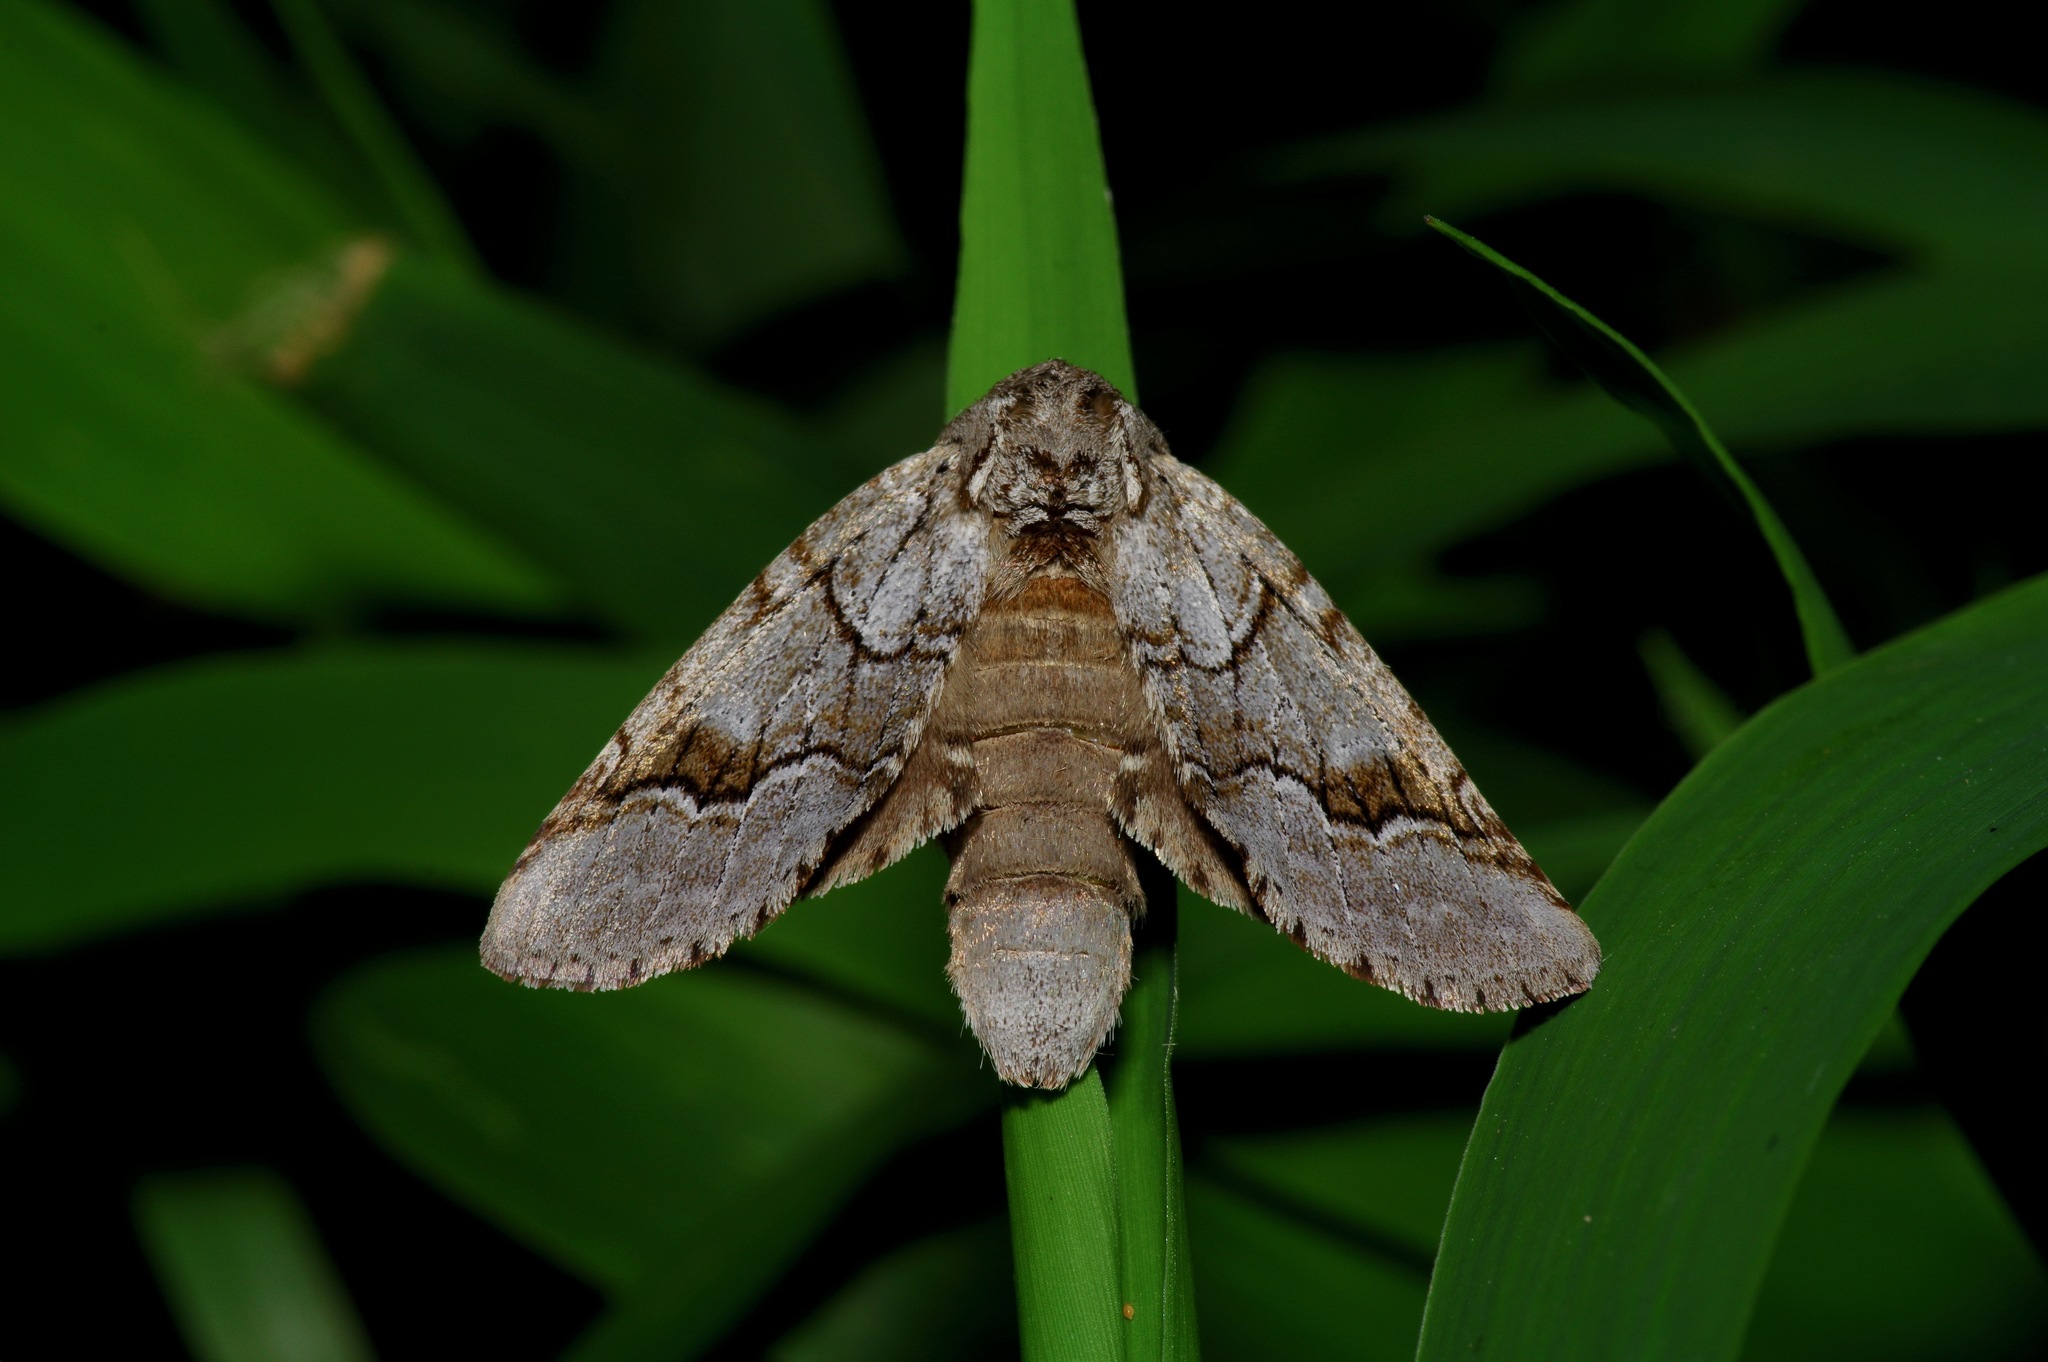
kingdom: Animalia
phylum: Arthropoda
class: Insecta
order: Lepidoptera
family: Notodontidae
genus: Lochmaeus
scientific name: Lochmaeus bilineata
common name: Double-lined prominent
